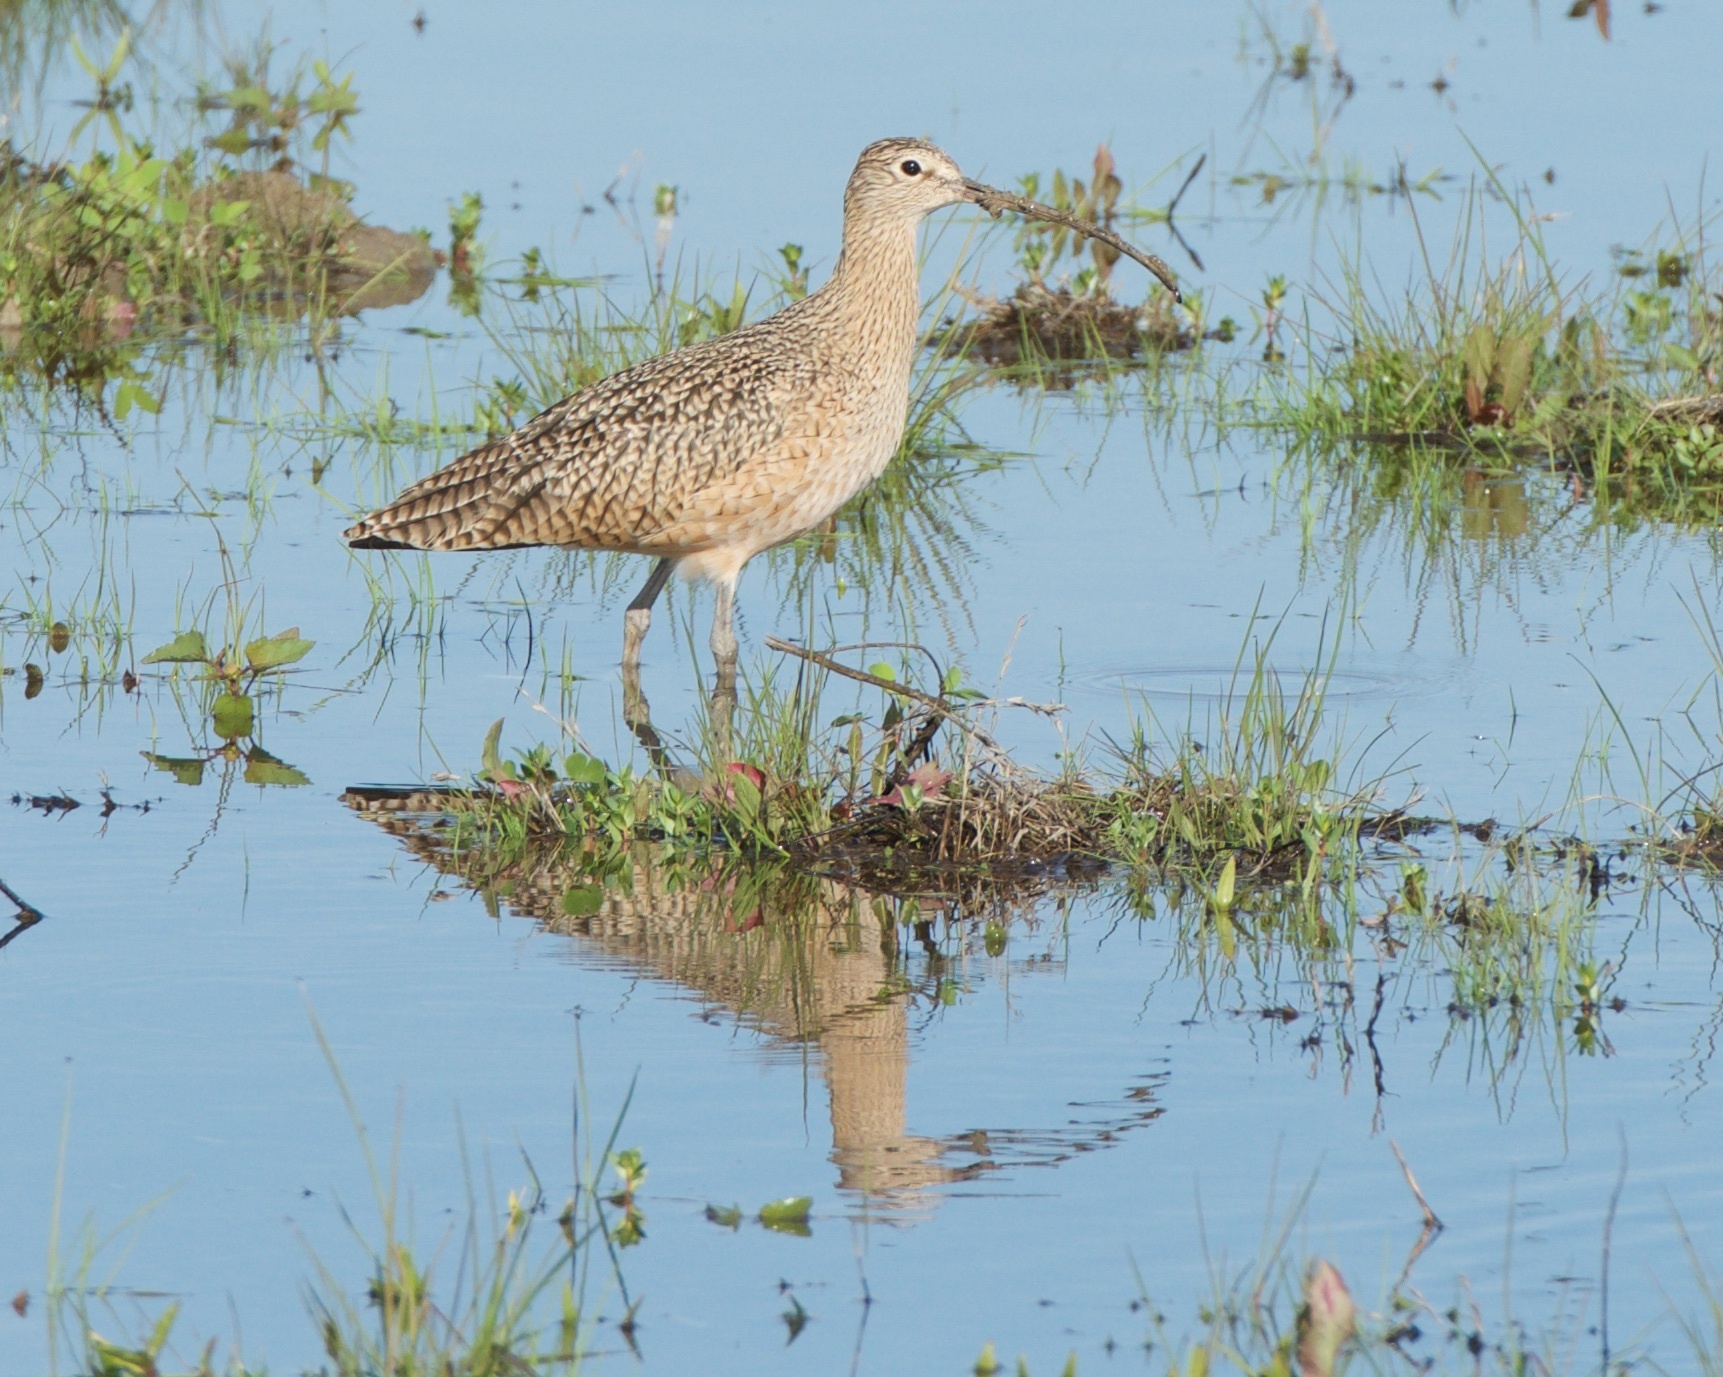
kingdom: Animalia
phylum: Chordata
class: Aves
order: Charadriiformes
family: Scolopacidae
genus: Numenius
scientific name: Numenius americanus
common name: Long-billed curlew
